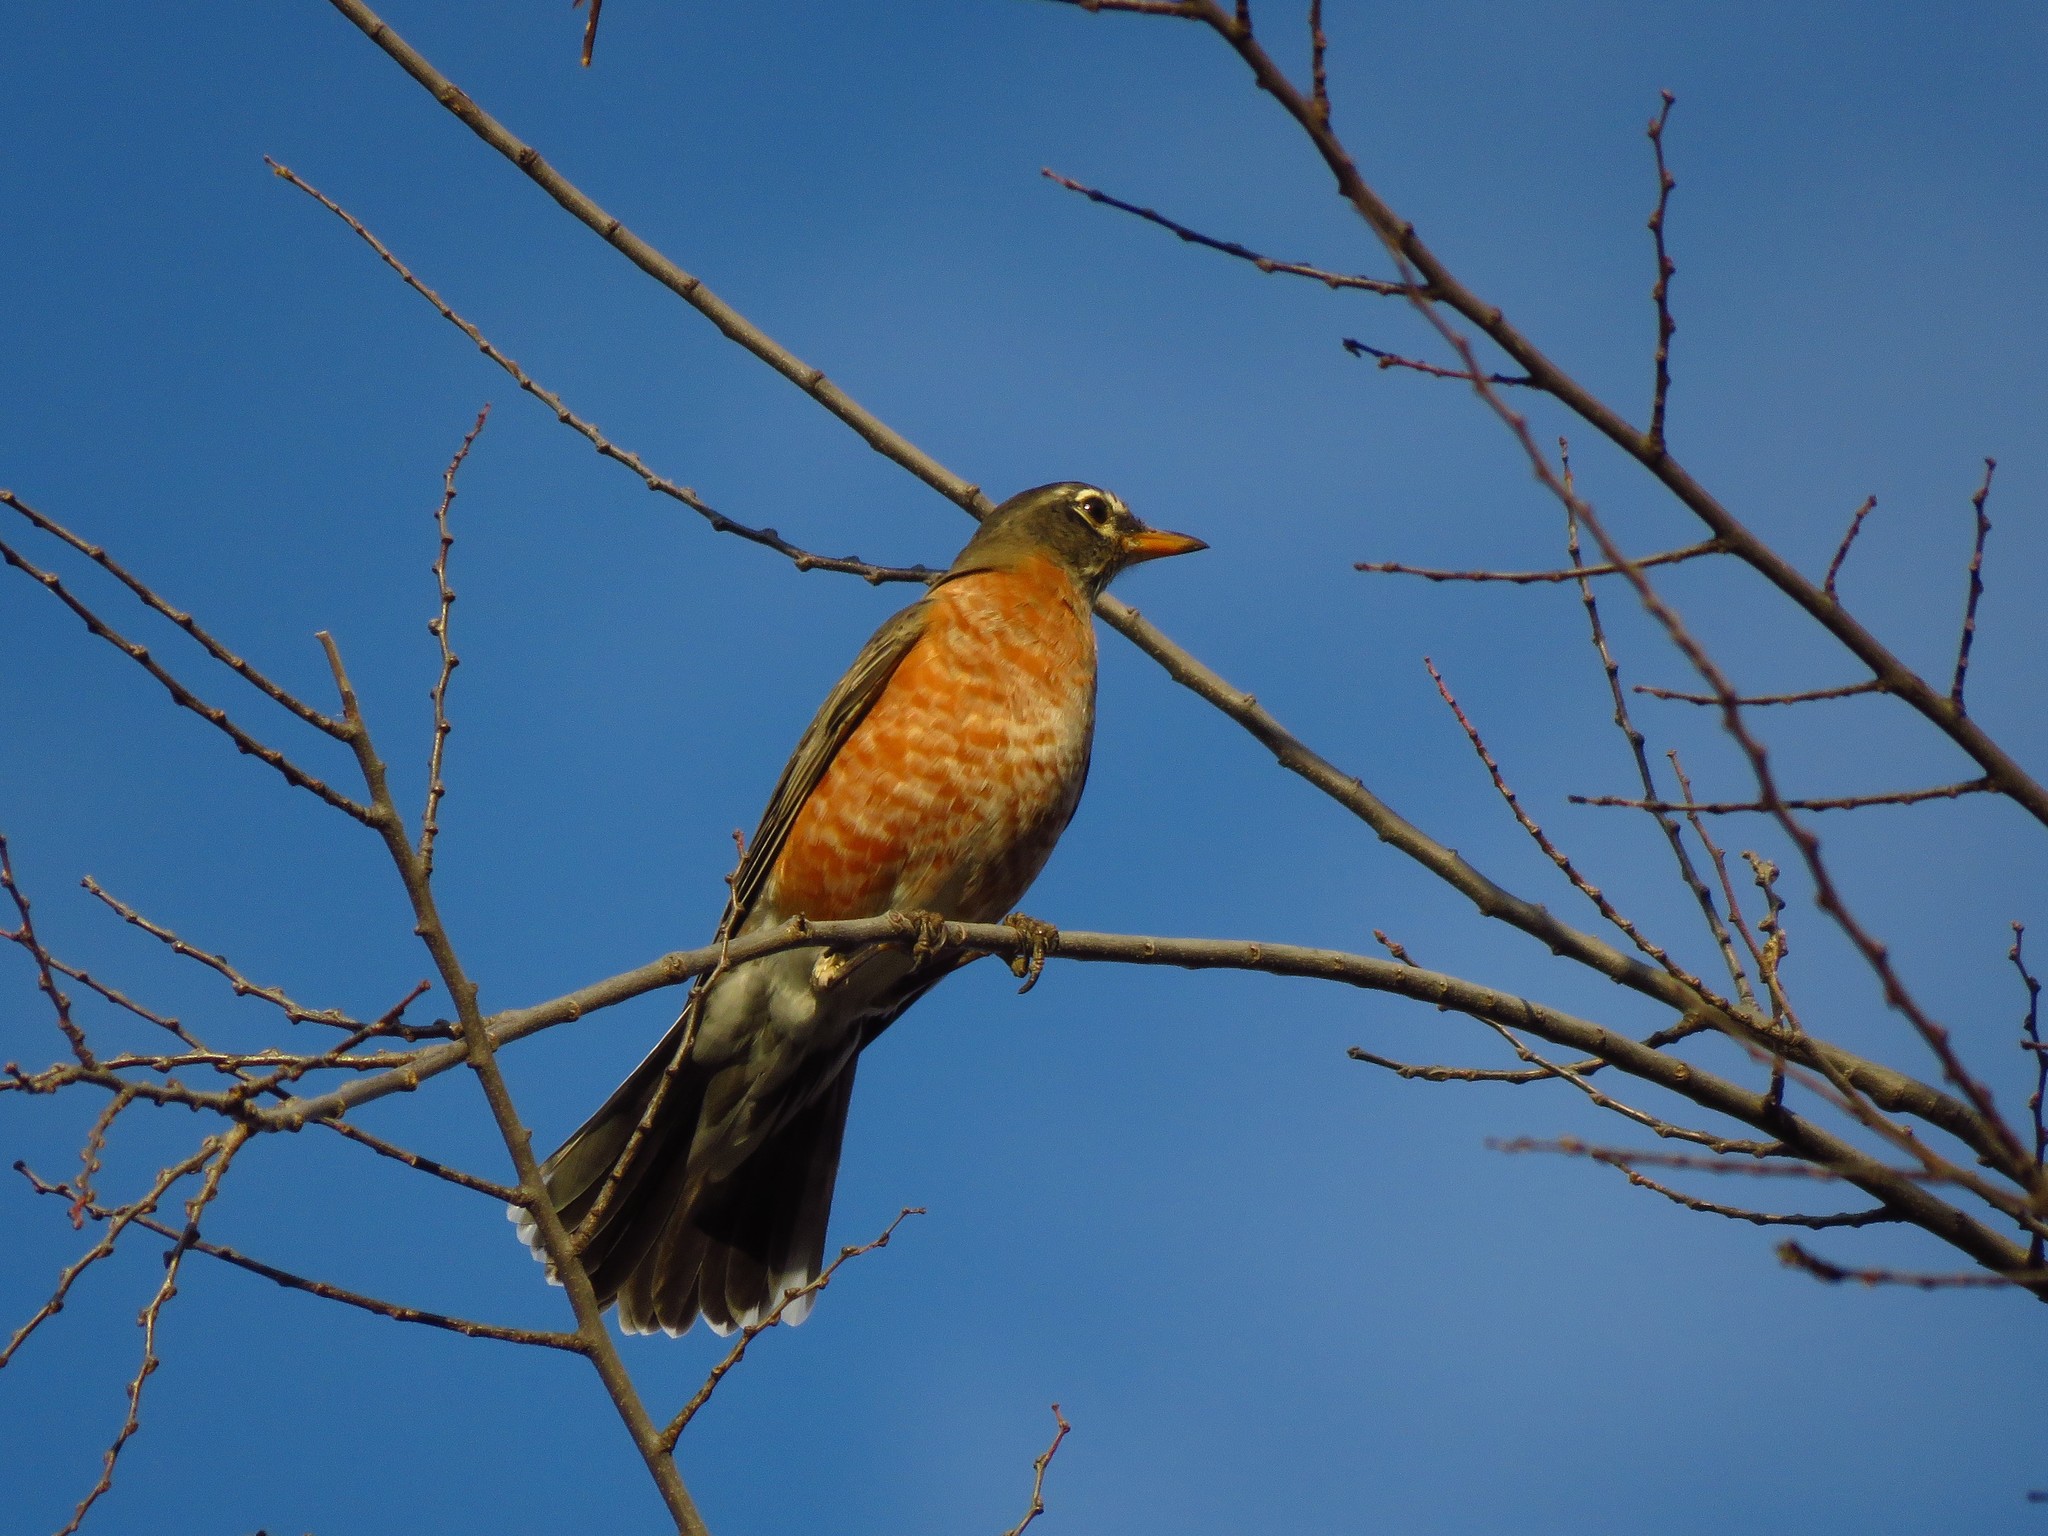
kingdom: Animalia
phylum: Chordata
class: Aves
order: Passeriformes
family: Turdidae
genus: Turdus
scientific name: Turdus migratorius
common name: American robin
